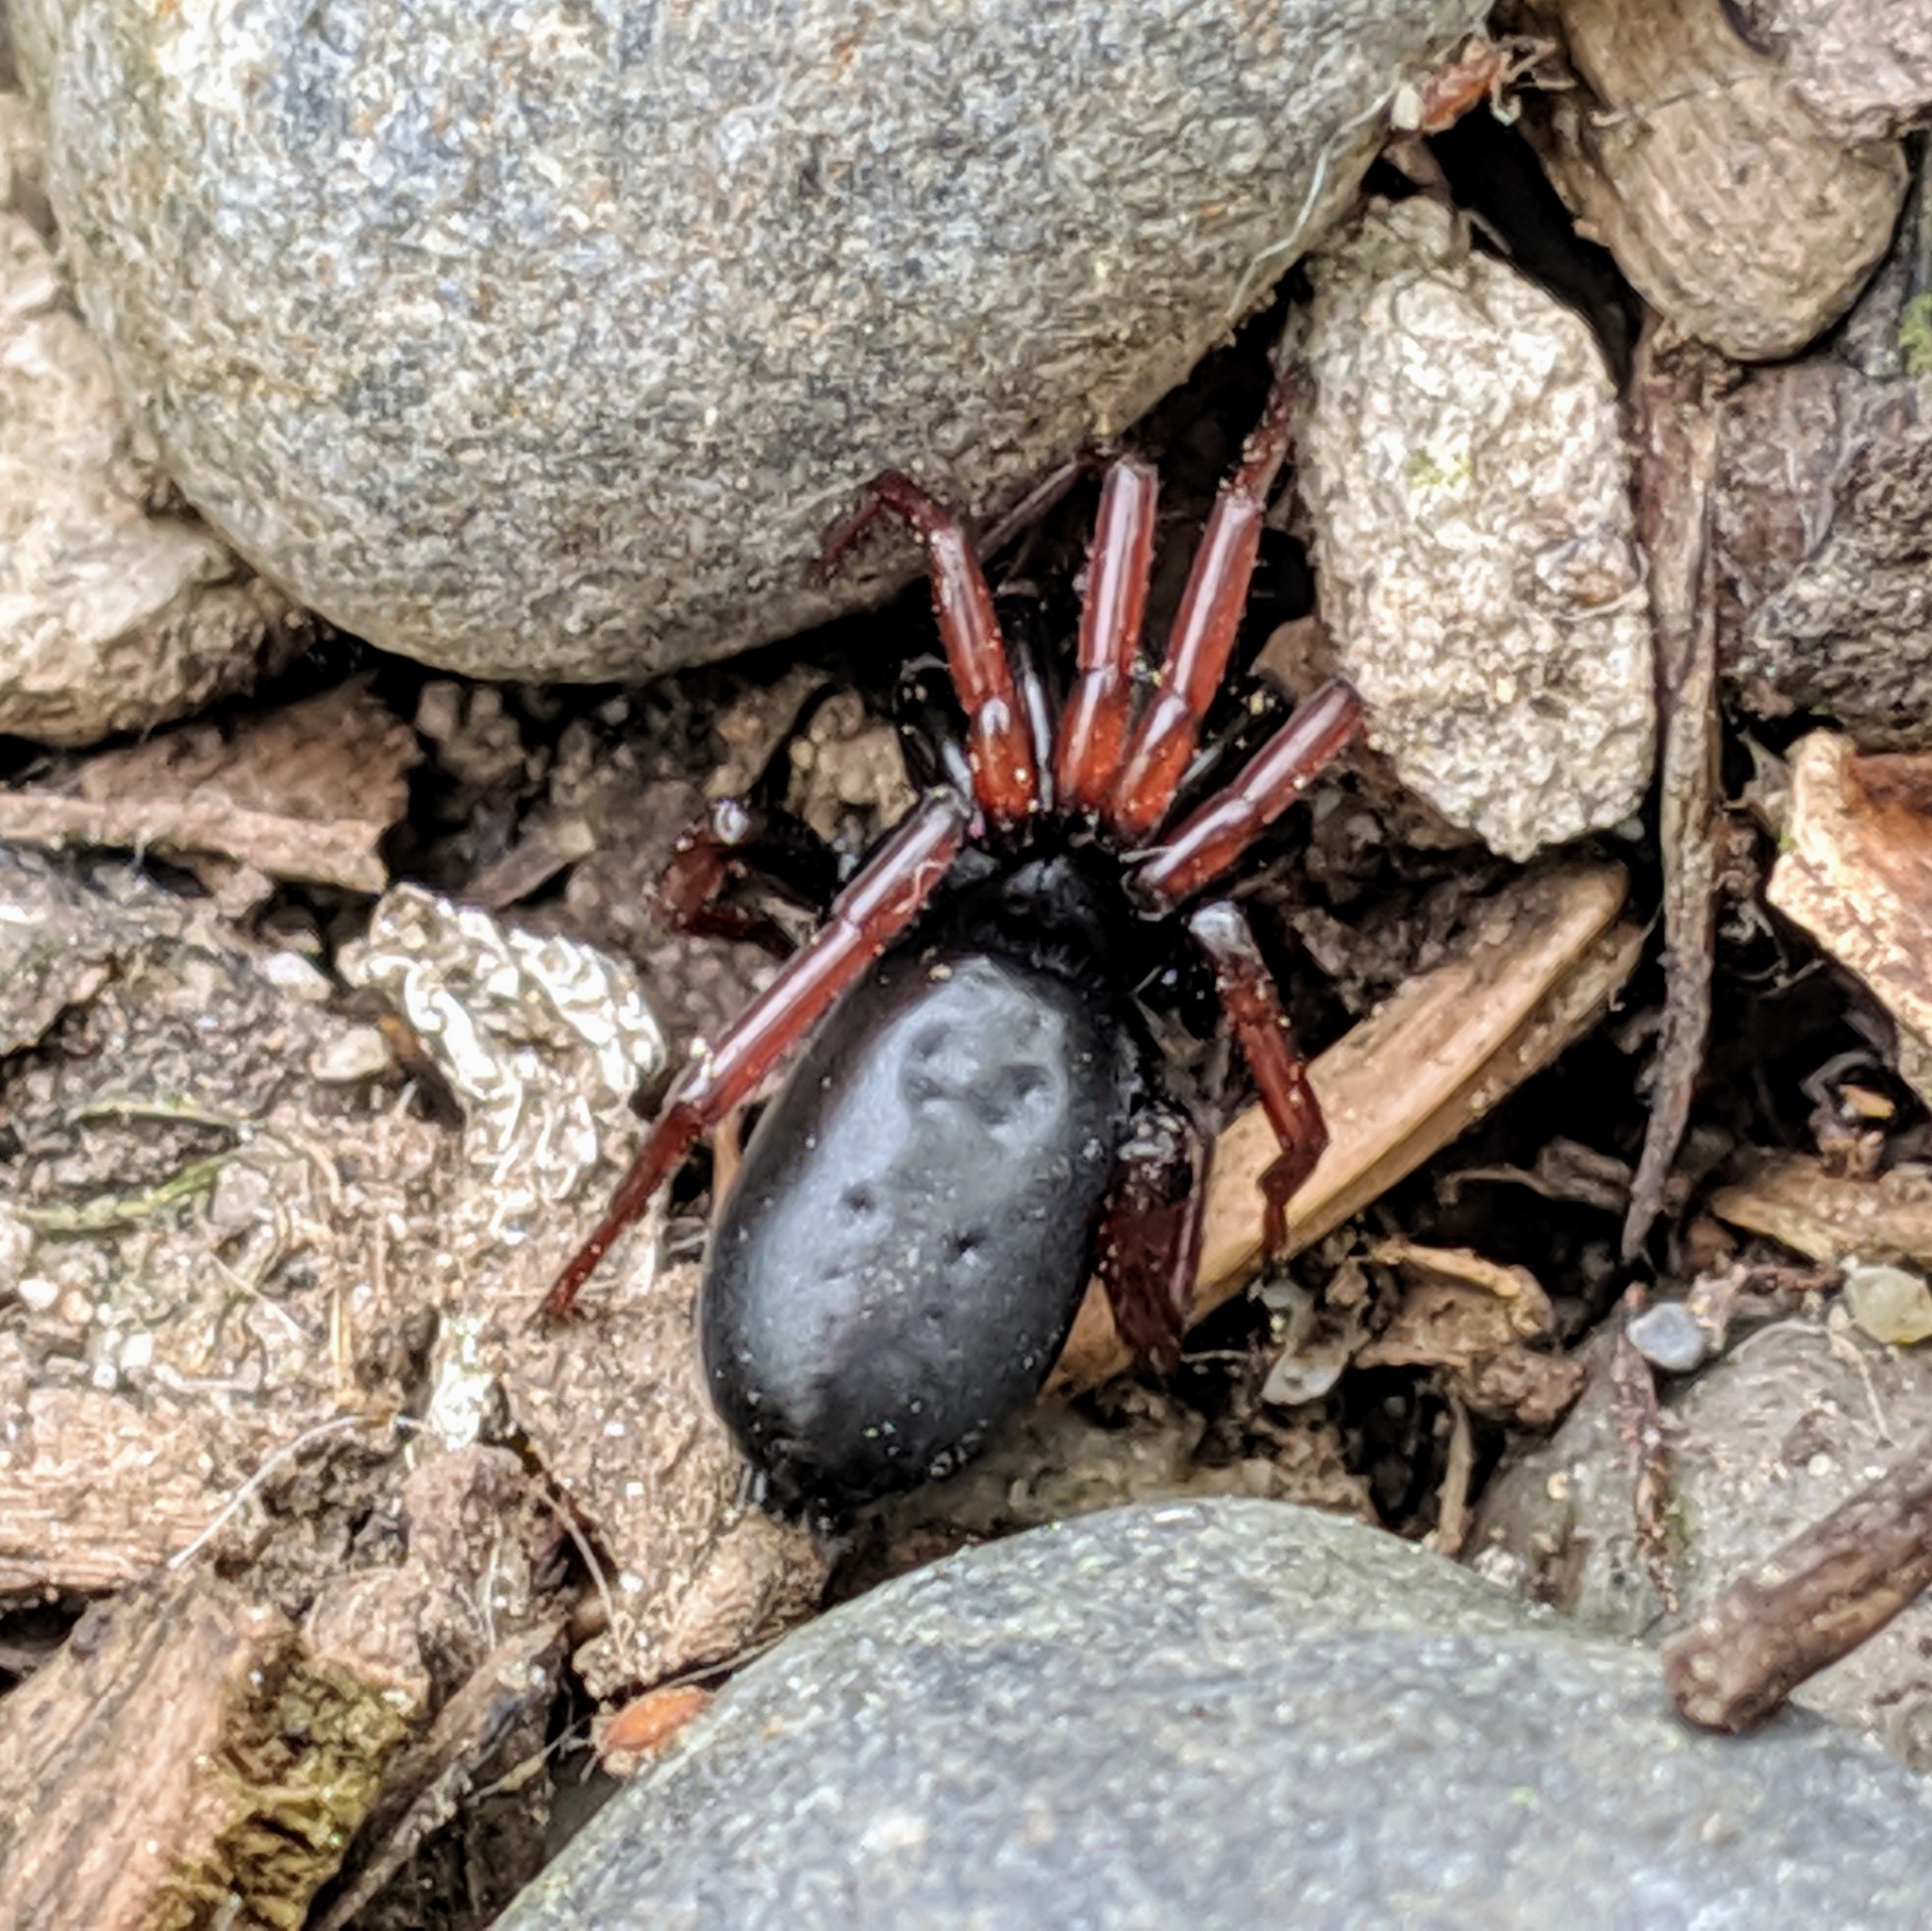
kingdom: Animalia
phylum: Arthropoda
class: Arachnida
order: Araneae
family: Gnaphosidae
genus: Trachyzelotes
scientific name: Trachyzelotes pedestris
